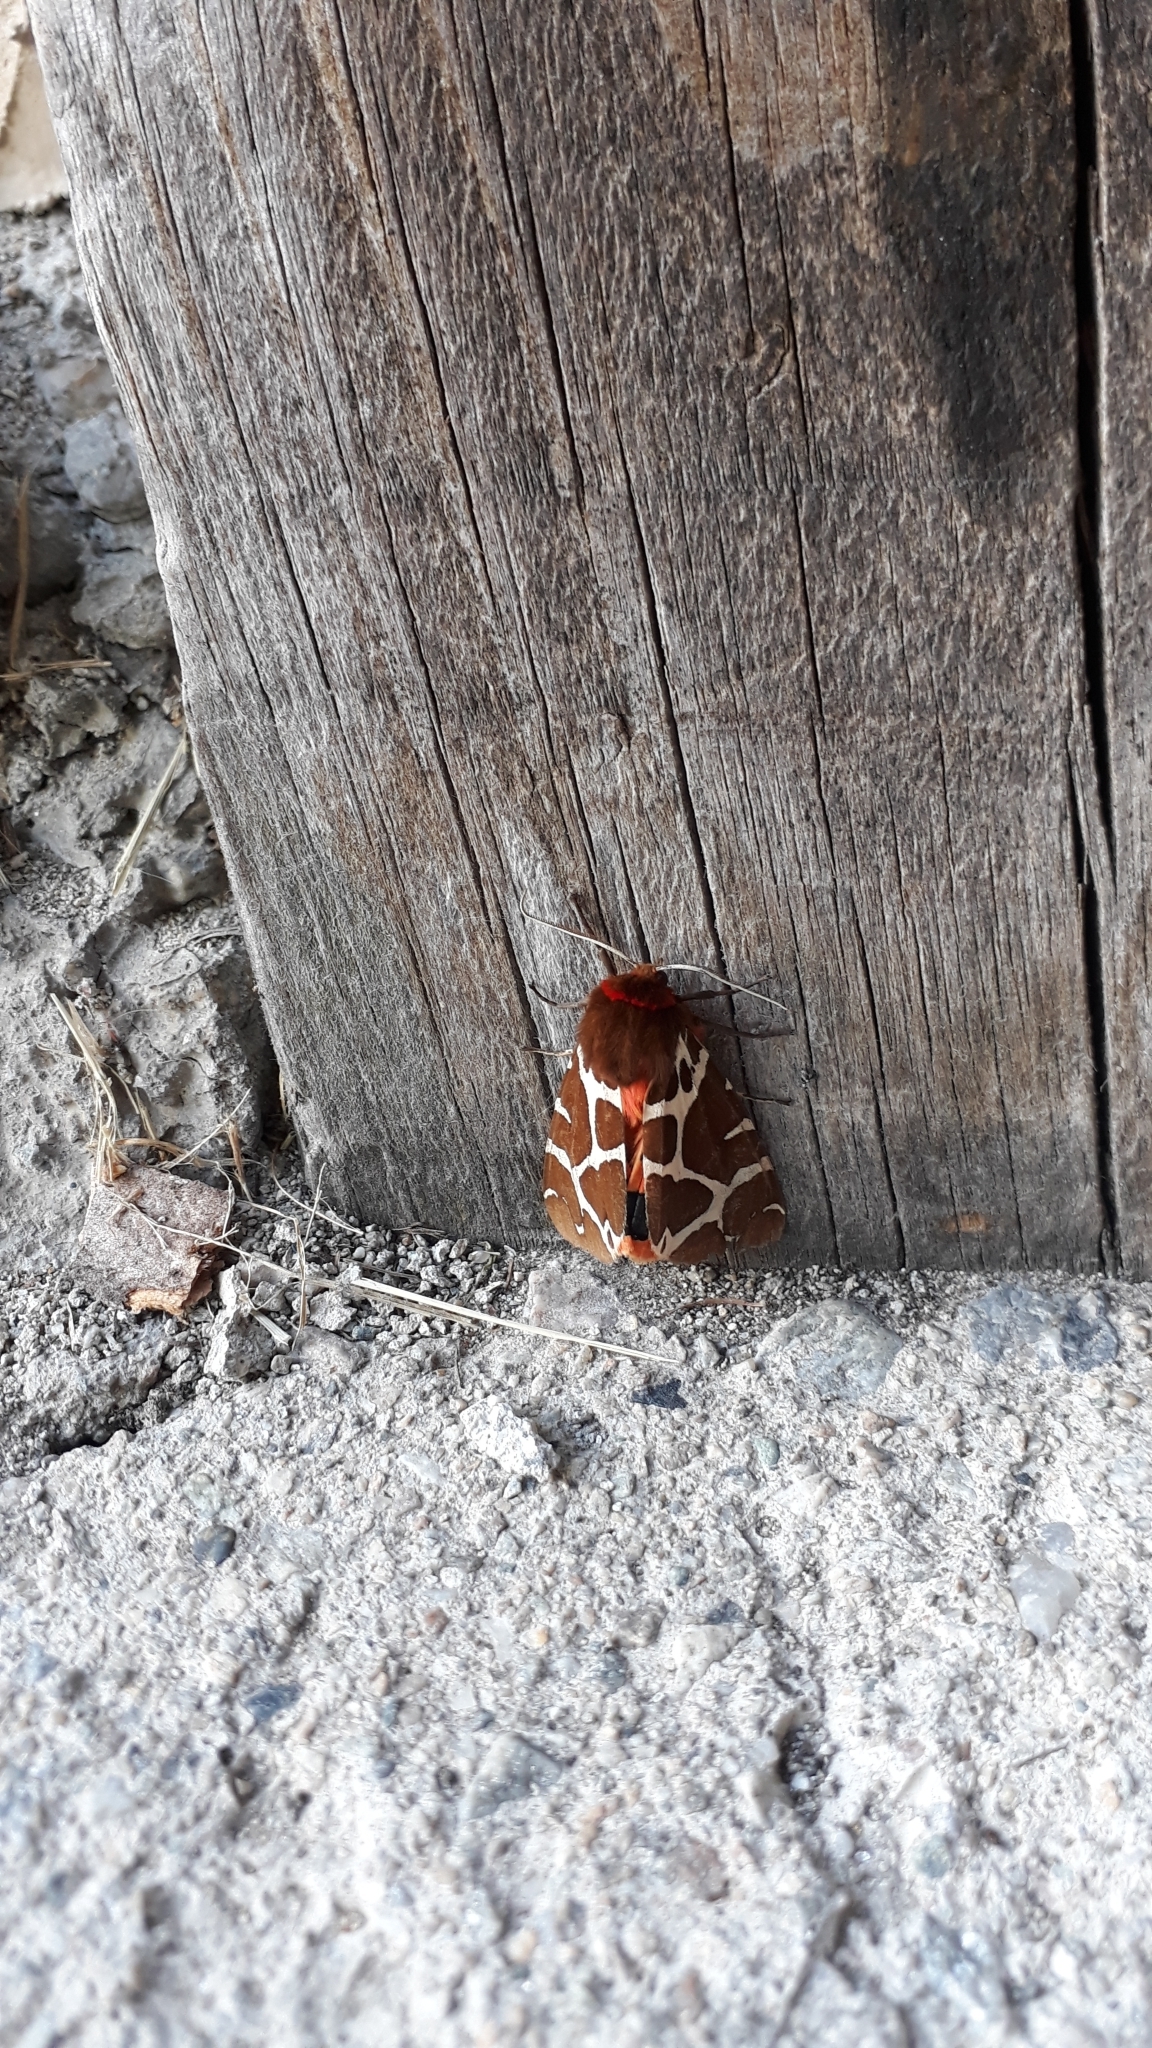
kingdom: Animalia
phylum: Arthropoda
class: Insecta
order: Lepidoptera
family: Erebidae
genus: Arctia
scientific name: Arctia caja
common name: Garden tiger
